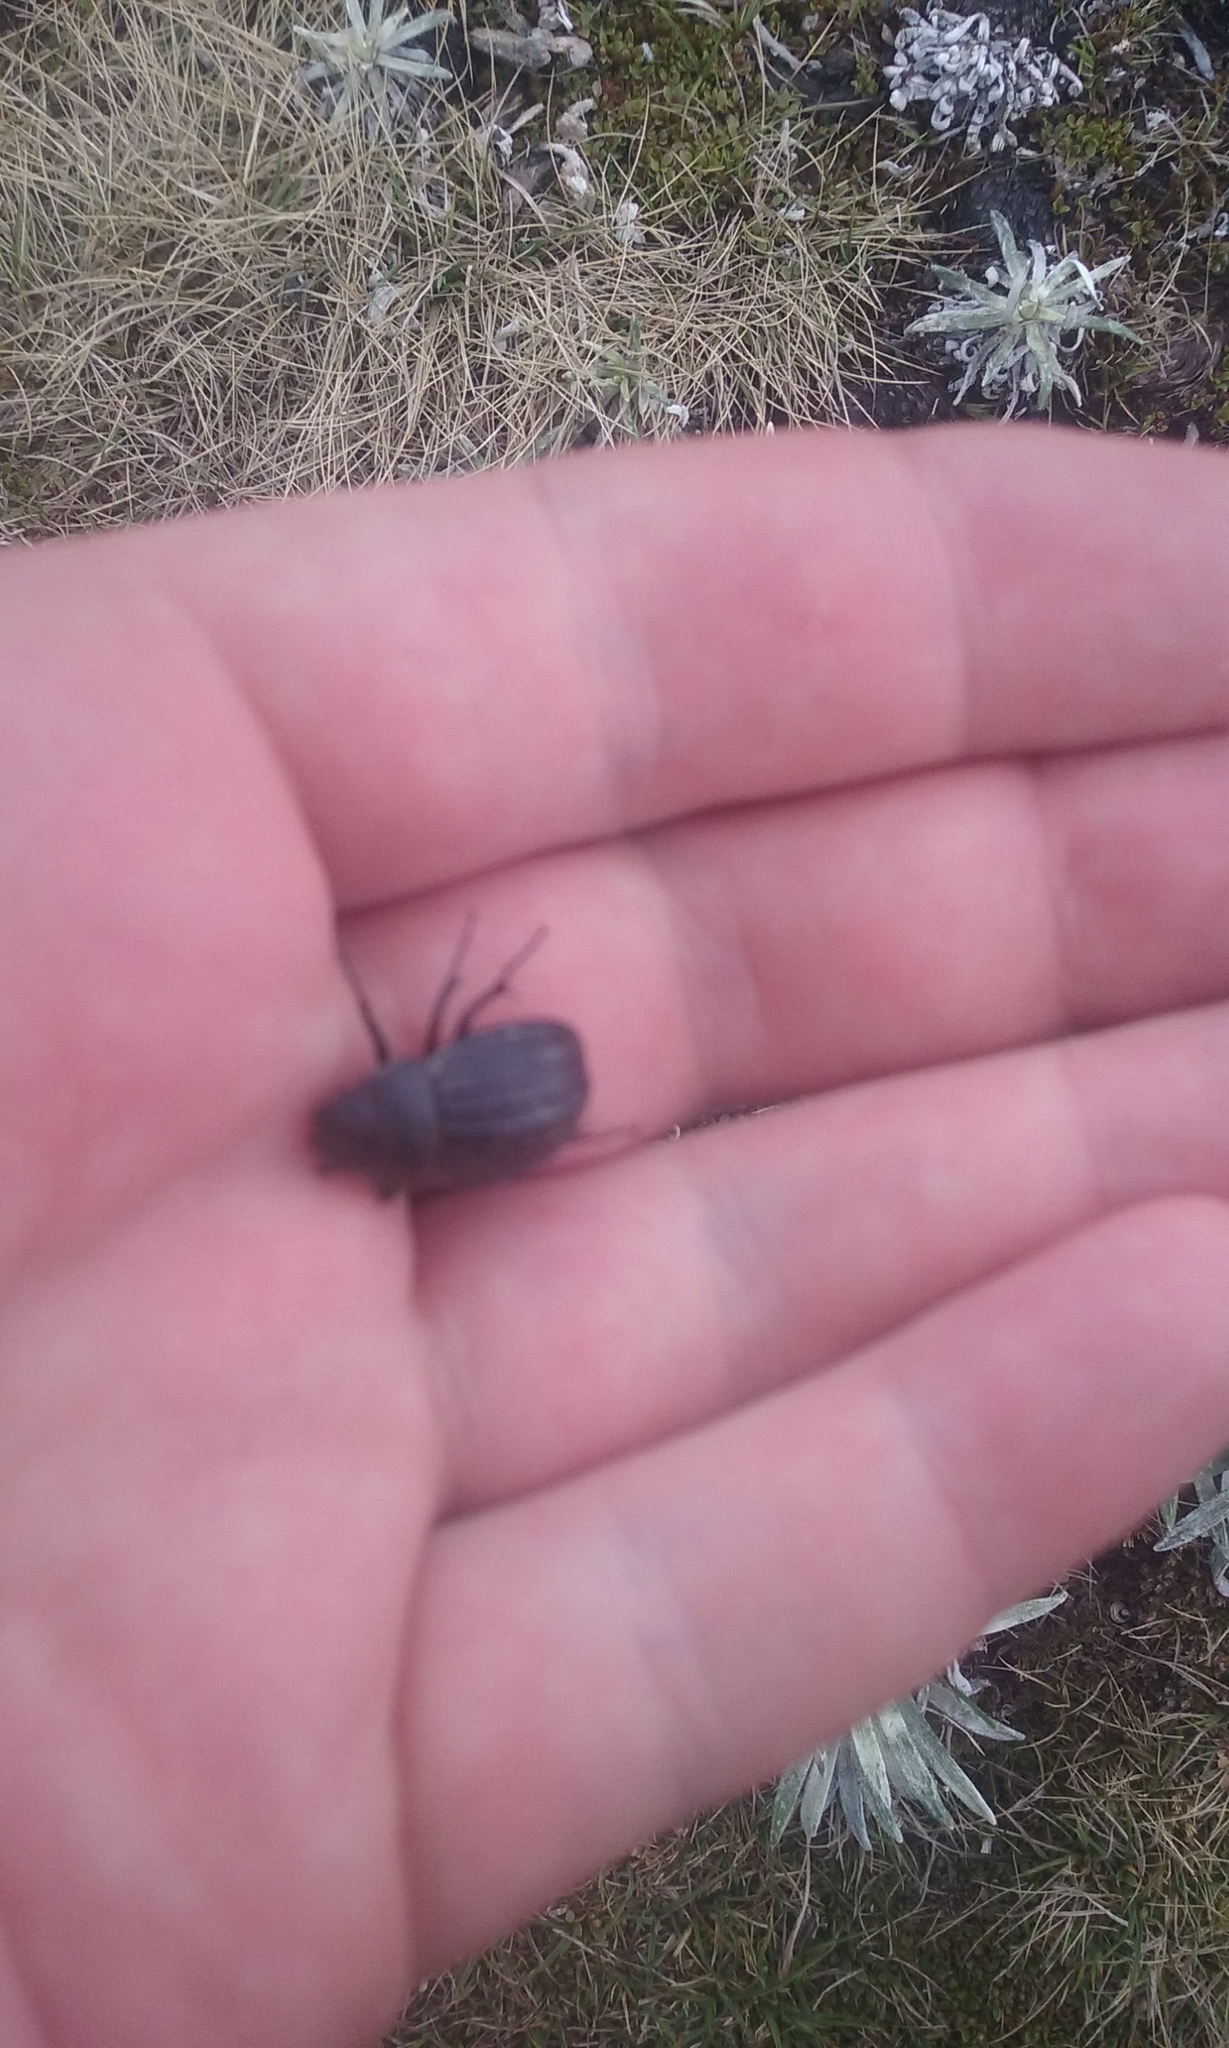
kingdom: Animalia
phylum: Arthropoda
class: Insecta
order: Coleoptera
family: Scarabaeidae
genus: Scythrodes
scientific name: Scythrodes squalidus
